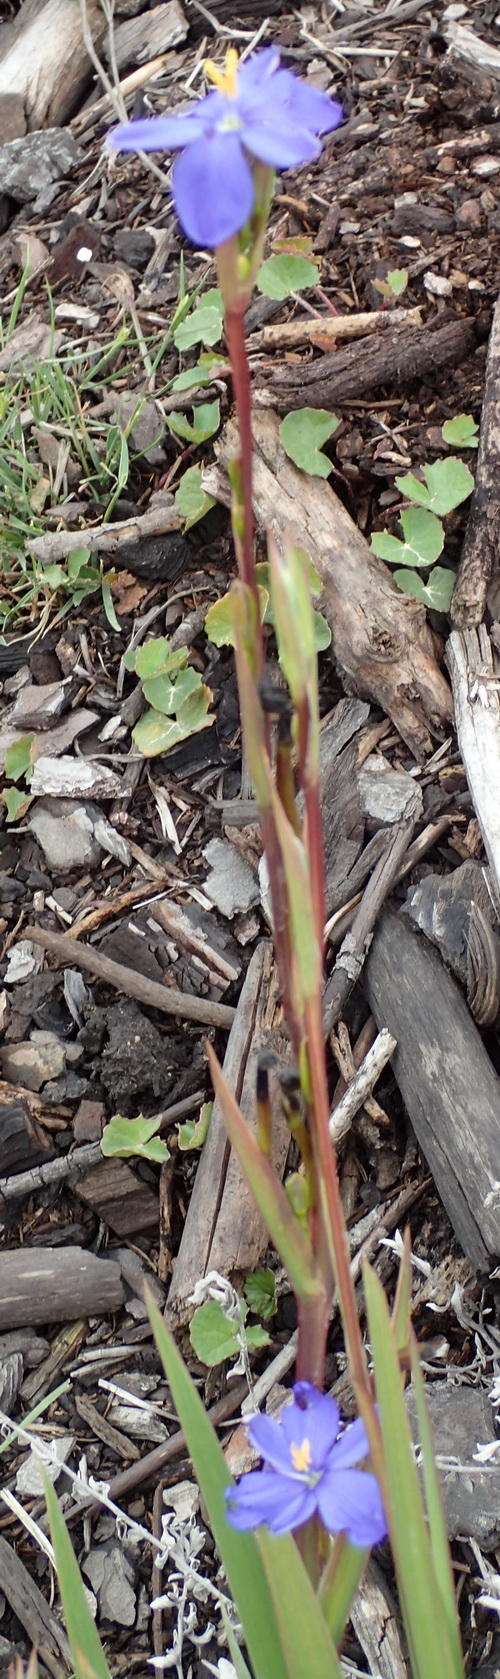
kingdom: Plantae
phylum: Tracheophyta
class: Liliopsida
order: Asparagales
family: Iridaceae
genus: Aristea
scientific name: Aristea ensifolia
